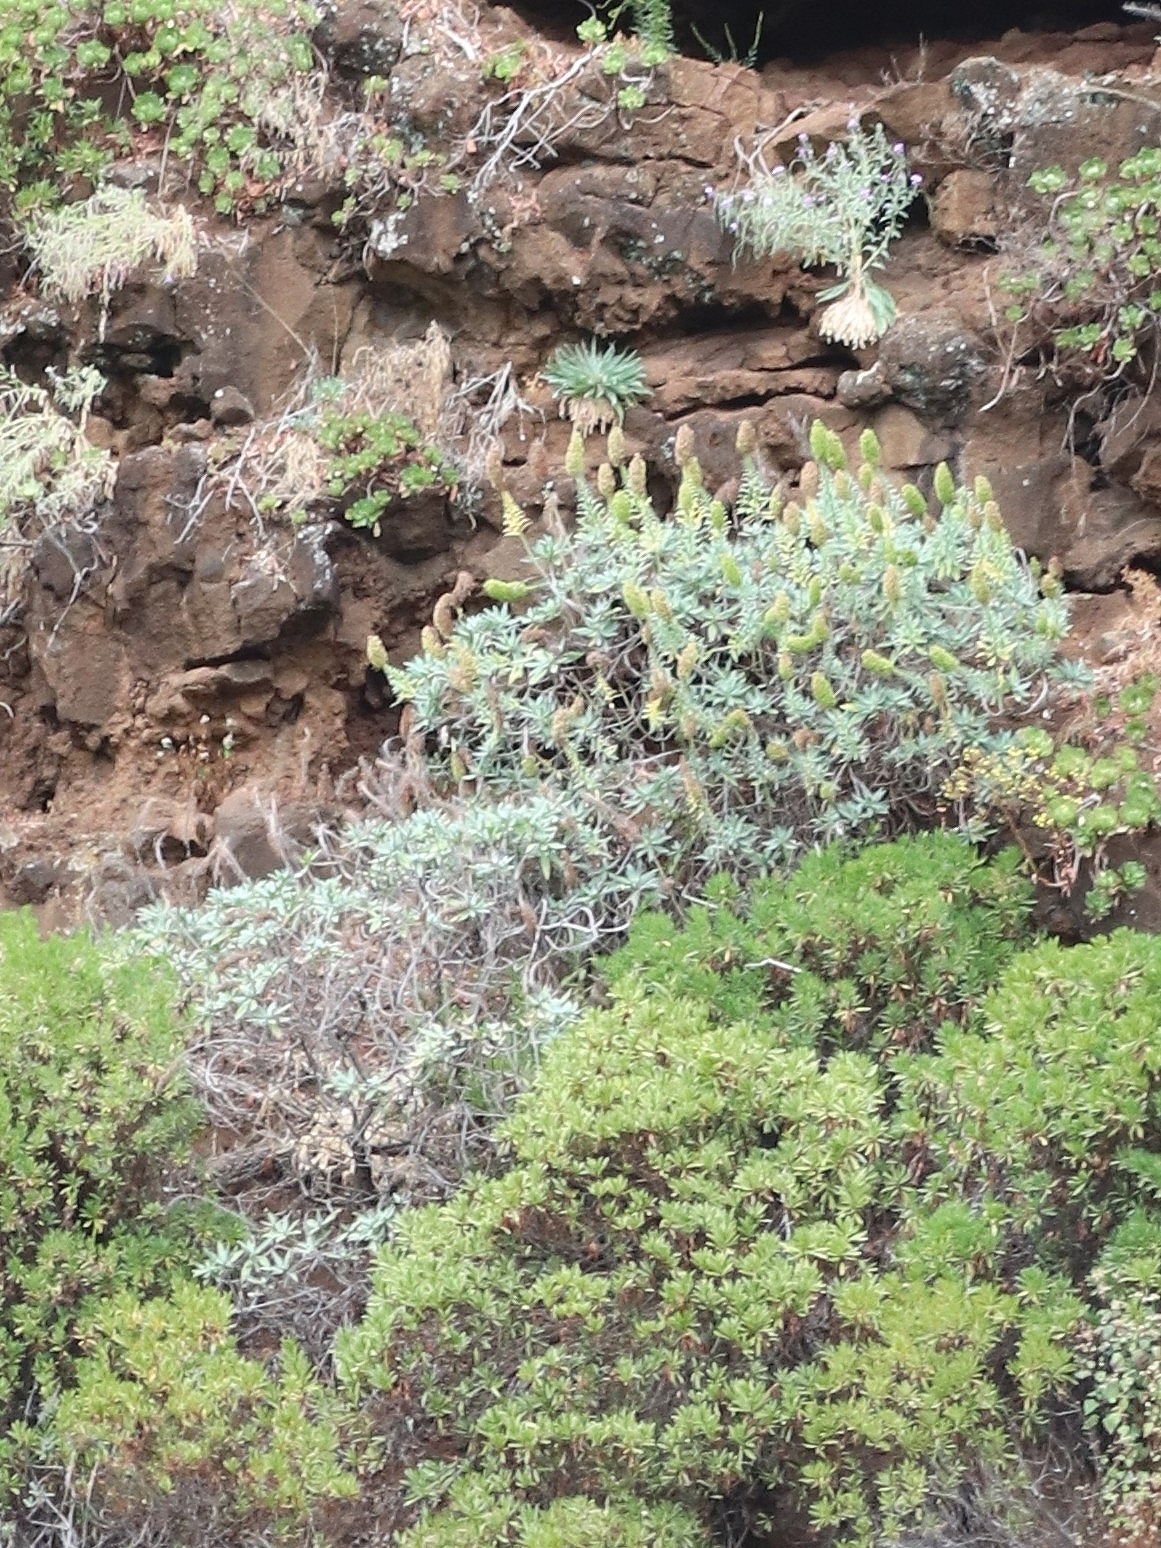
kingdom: Plantae
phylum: Tracheophyta
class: Magnoliopsida
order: Boraginales
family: Boraginaceae
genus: Echium
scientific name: Echium nervosum
